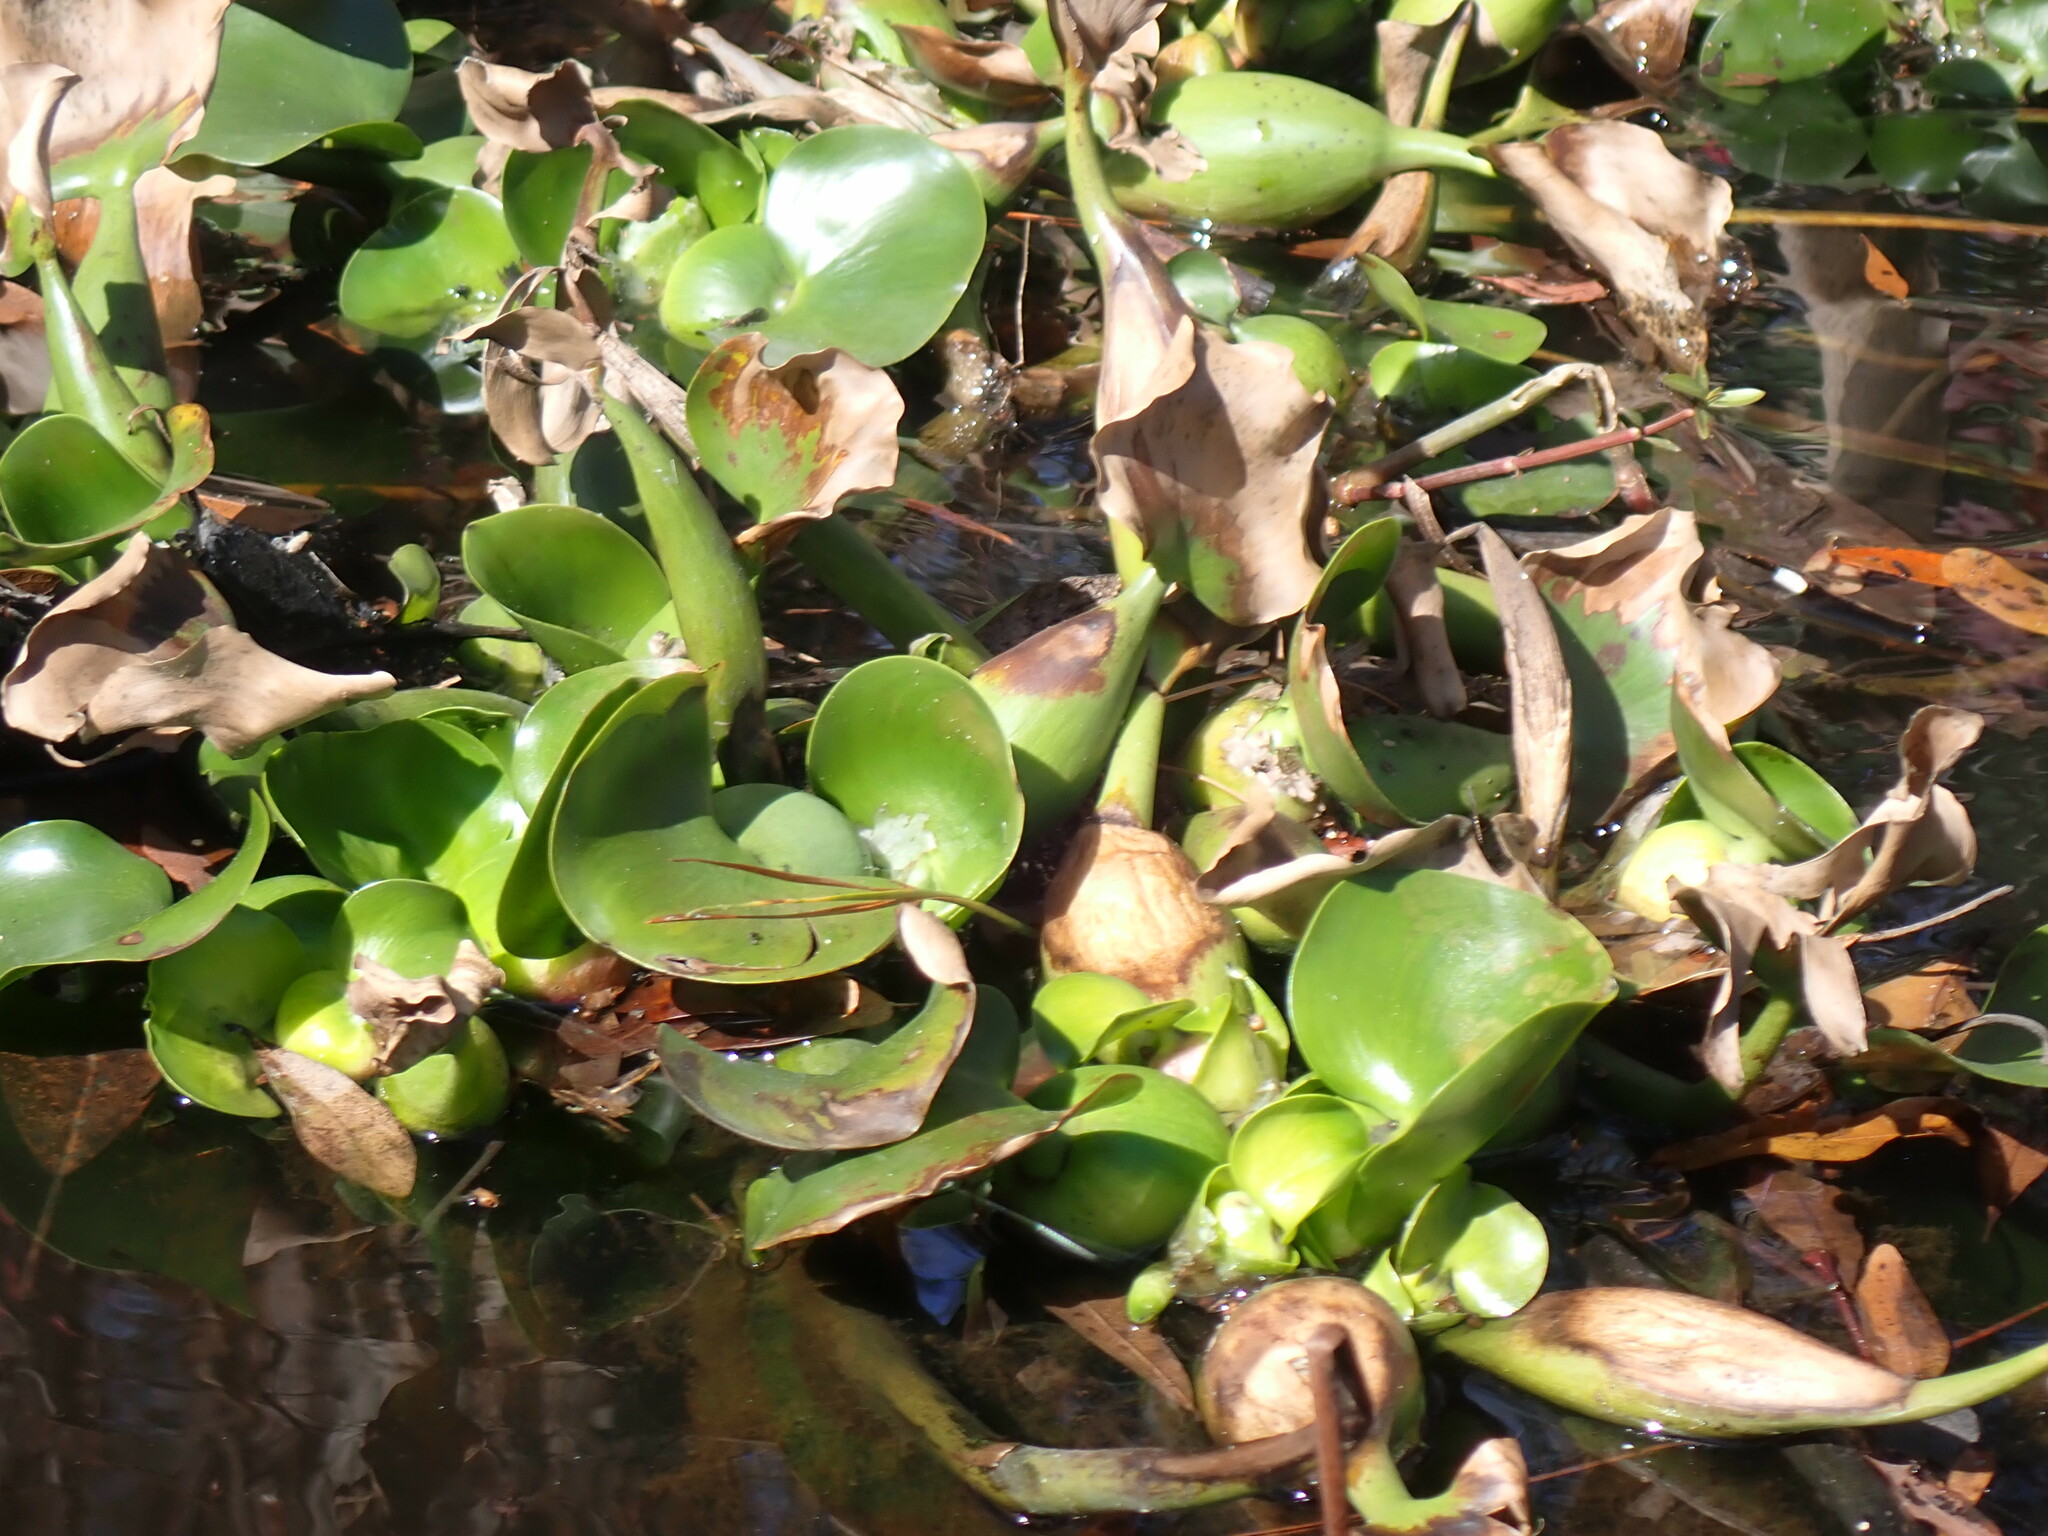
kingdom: Plantae
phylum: Tracheophyta
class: Liliopsida
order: Commelinales
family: Pontederiaceae
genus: Pontederia
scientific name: Pontederia crassipes
